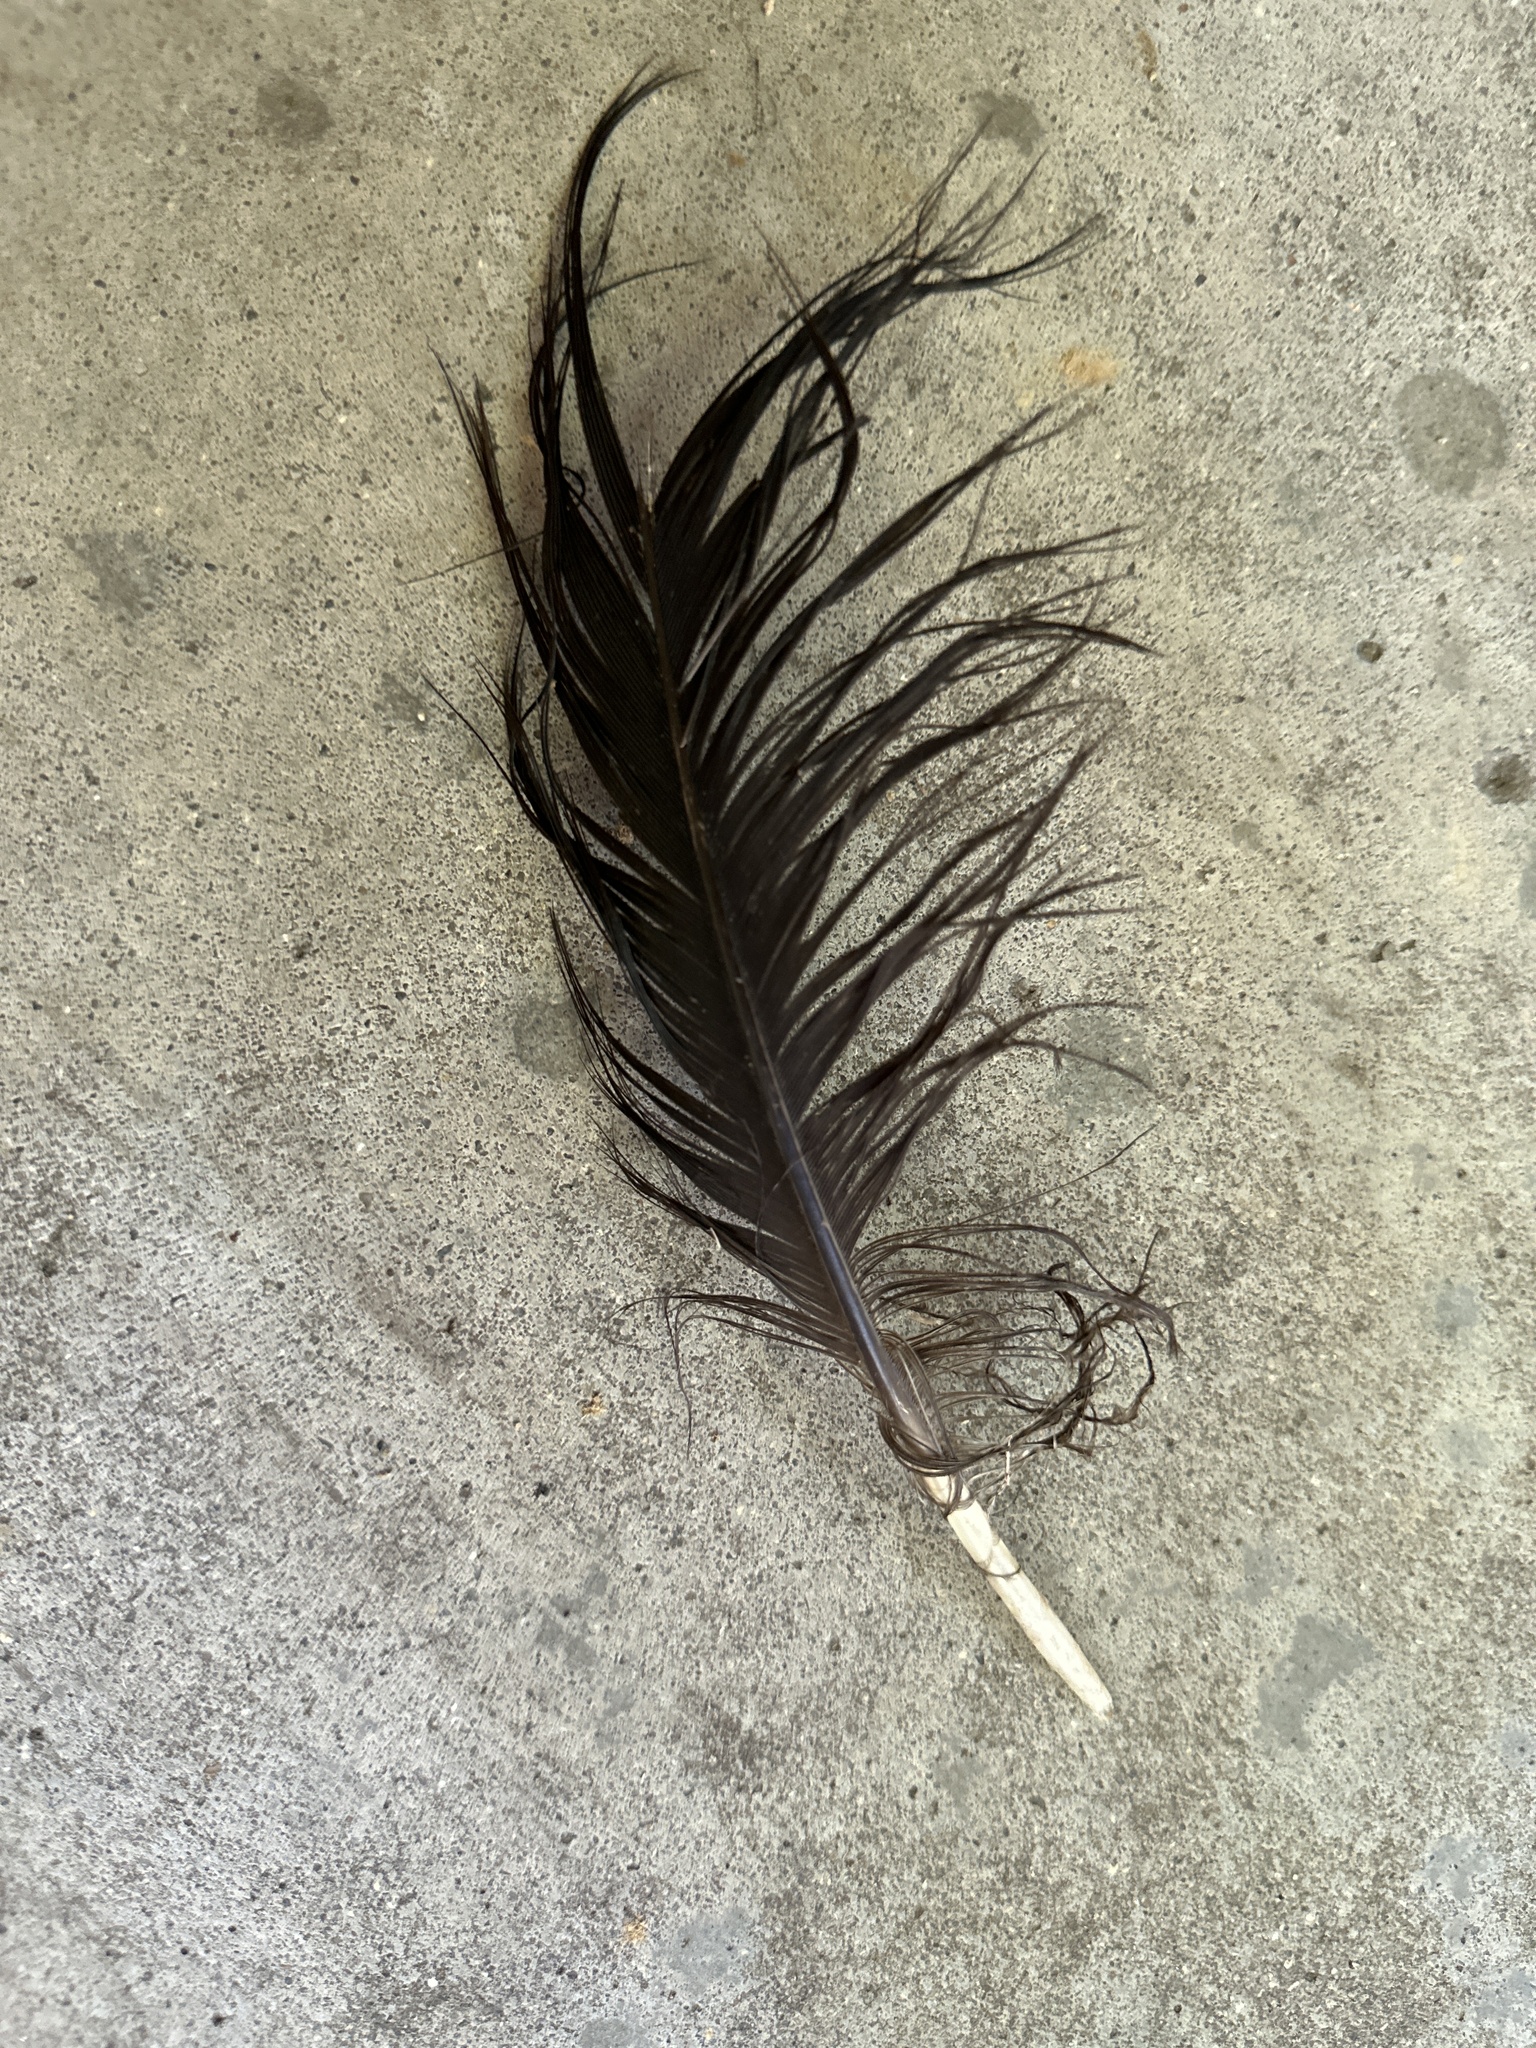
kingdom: Animalia
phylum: Chordata
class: Aves
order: Accipitriformes
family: Cathartidae
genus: Cathartes
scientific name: Cathartes aura
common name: Turkey vulture
